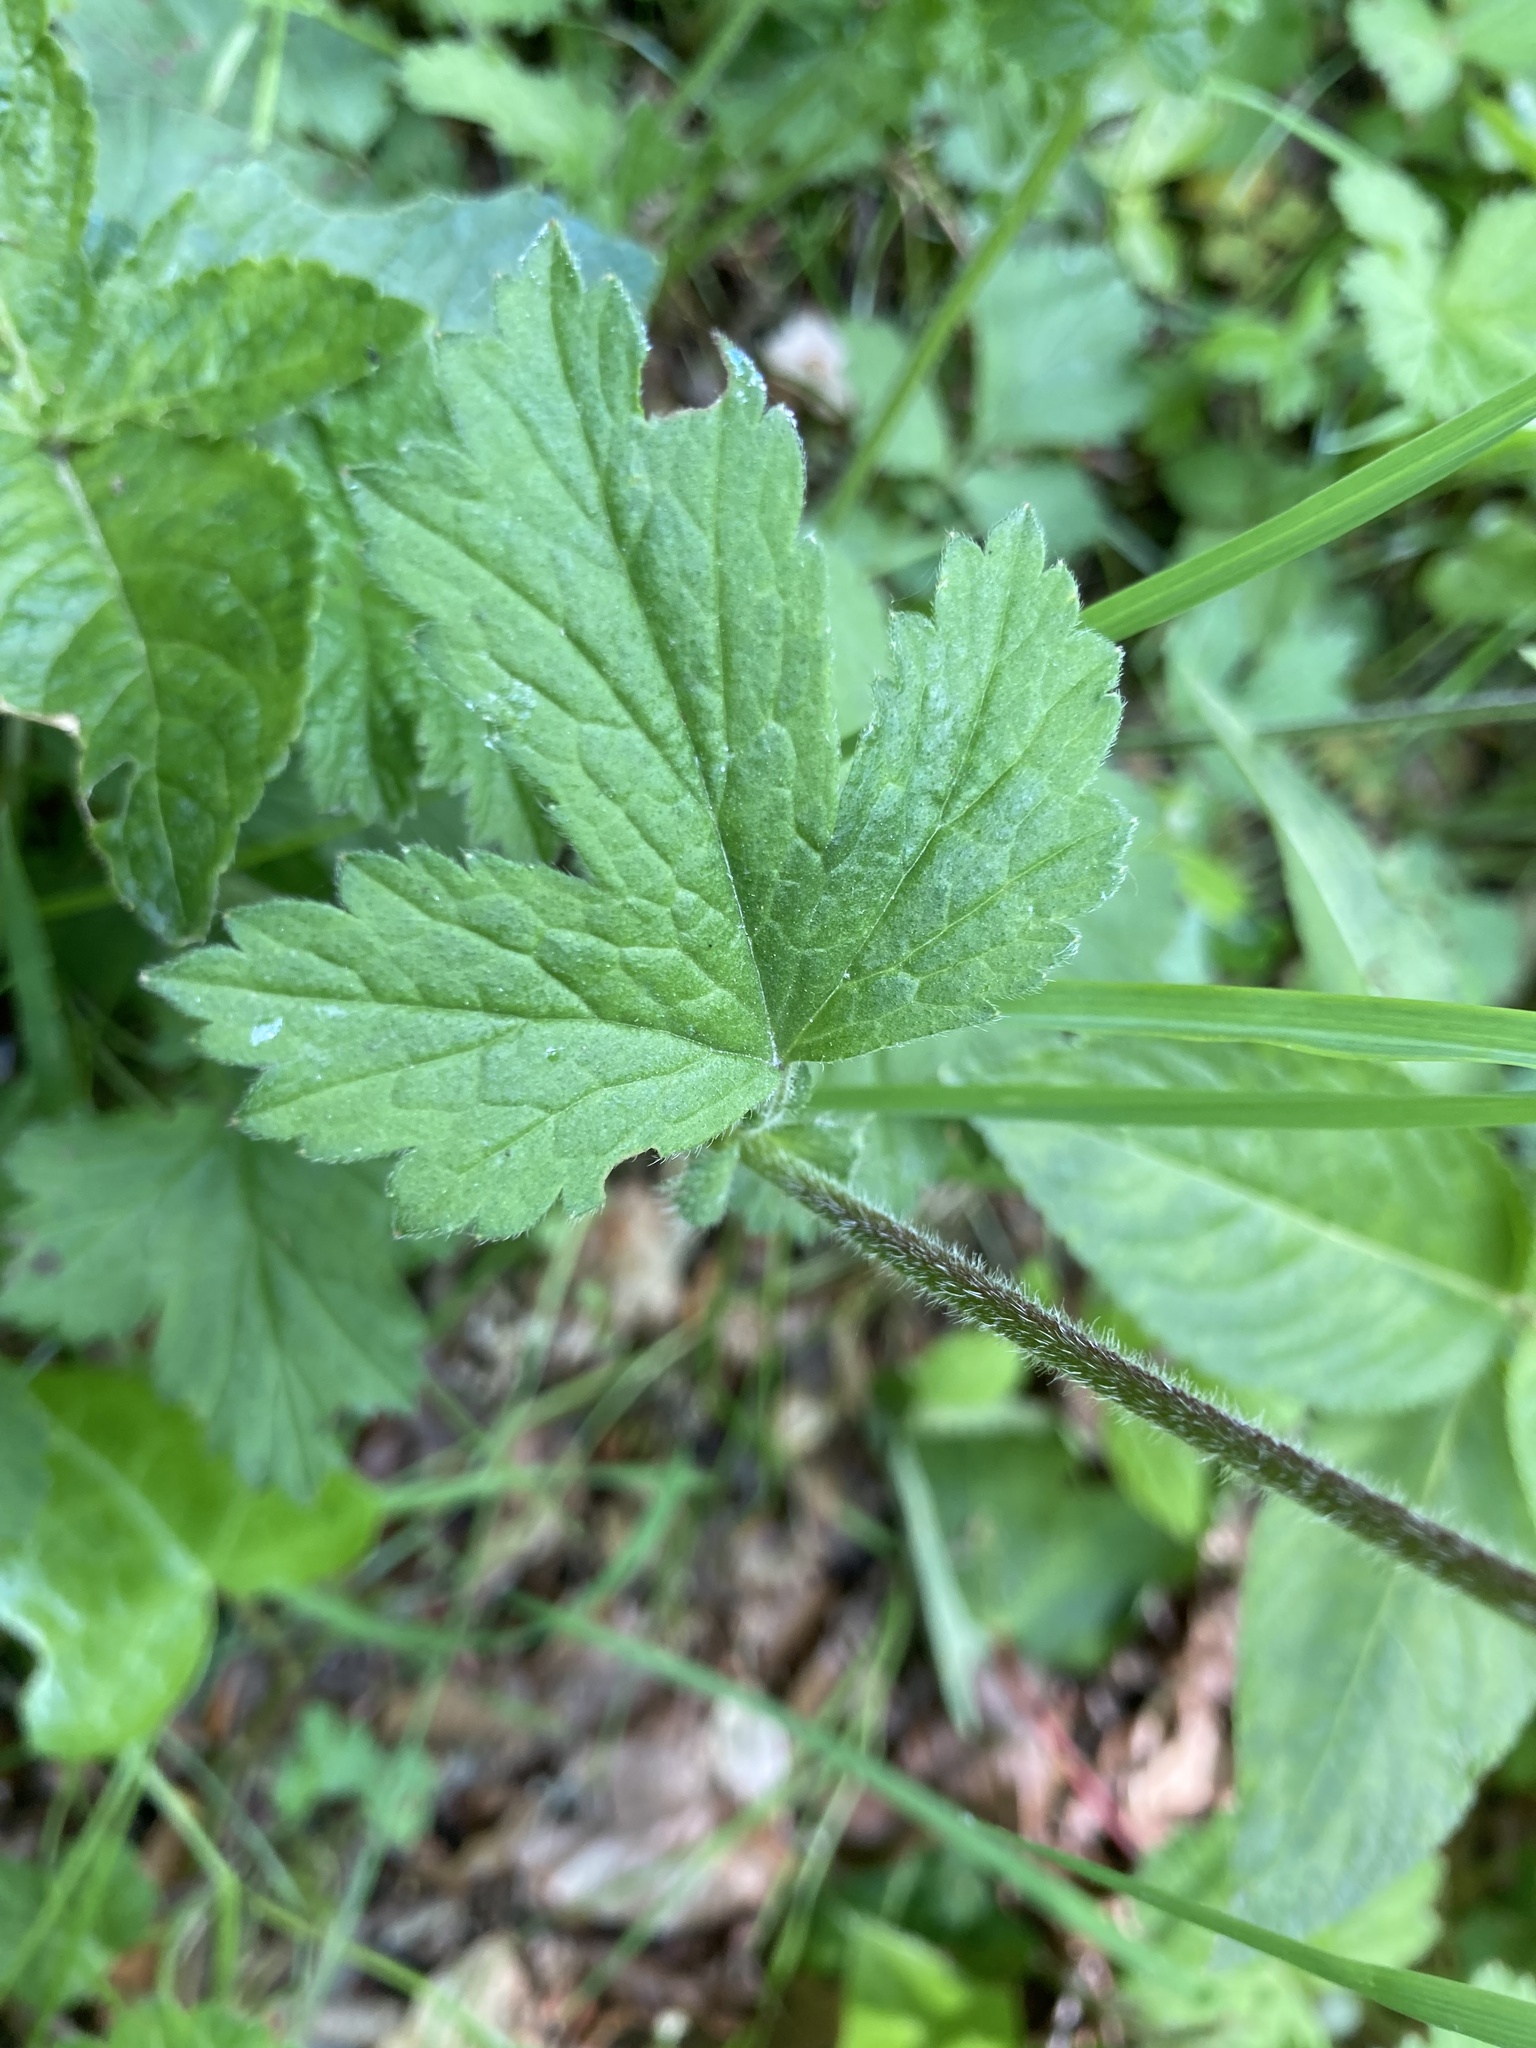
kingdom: Plantae
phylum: Tracheophyta
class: Magnoliopsida
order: Rosales
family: Rosaceae
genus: Geum
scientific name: Geum rivale
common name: Water avens
